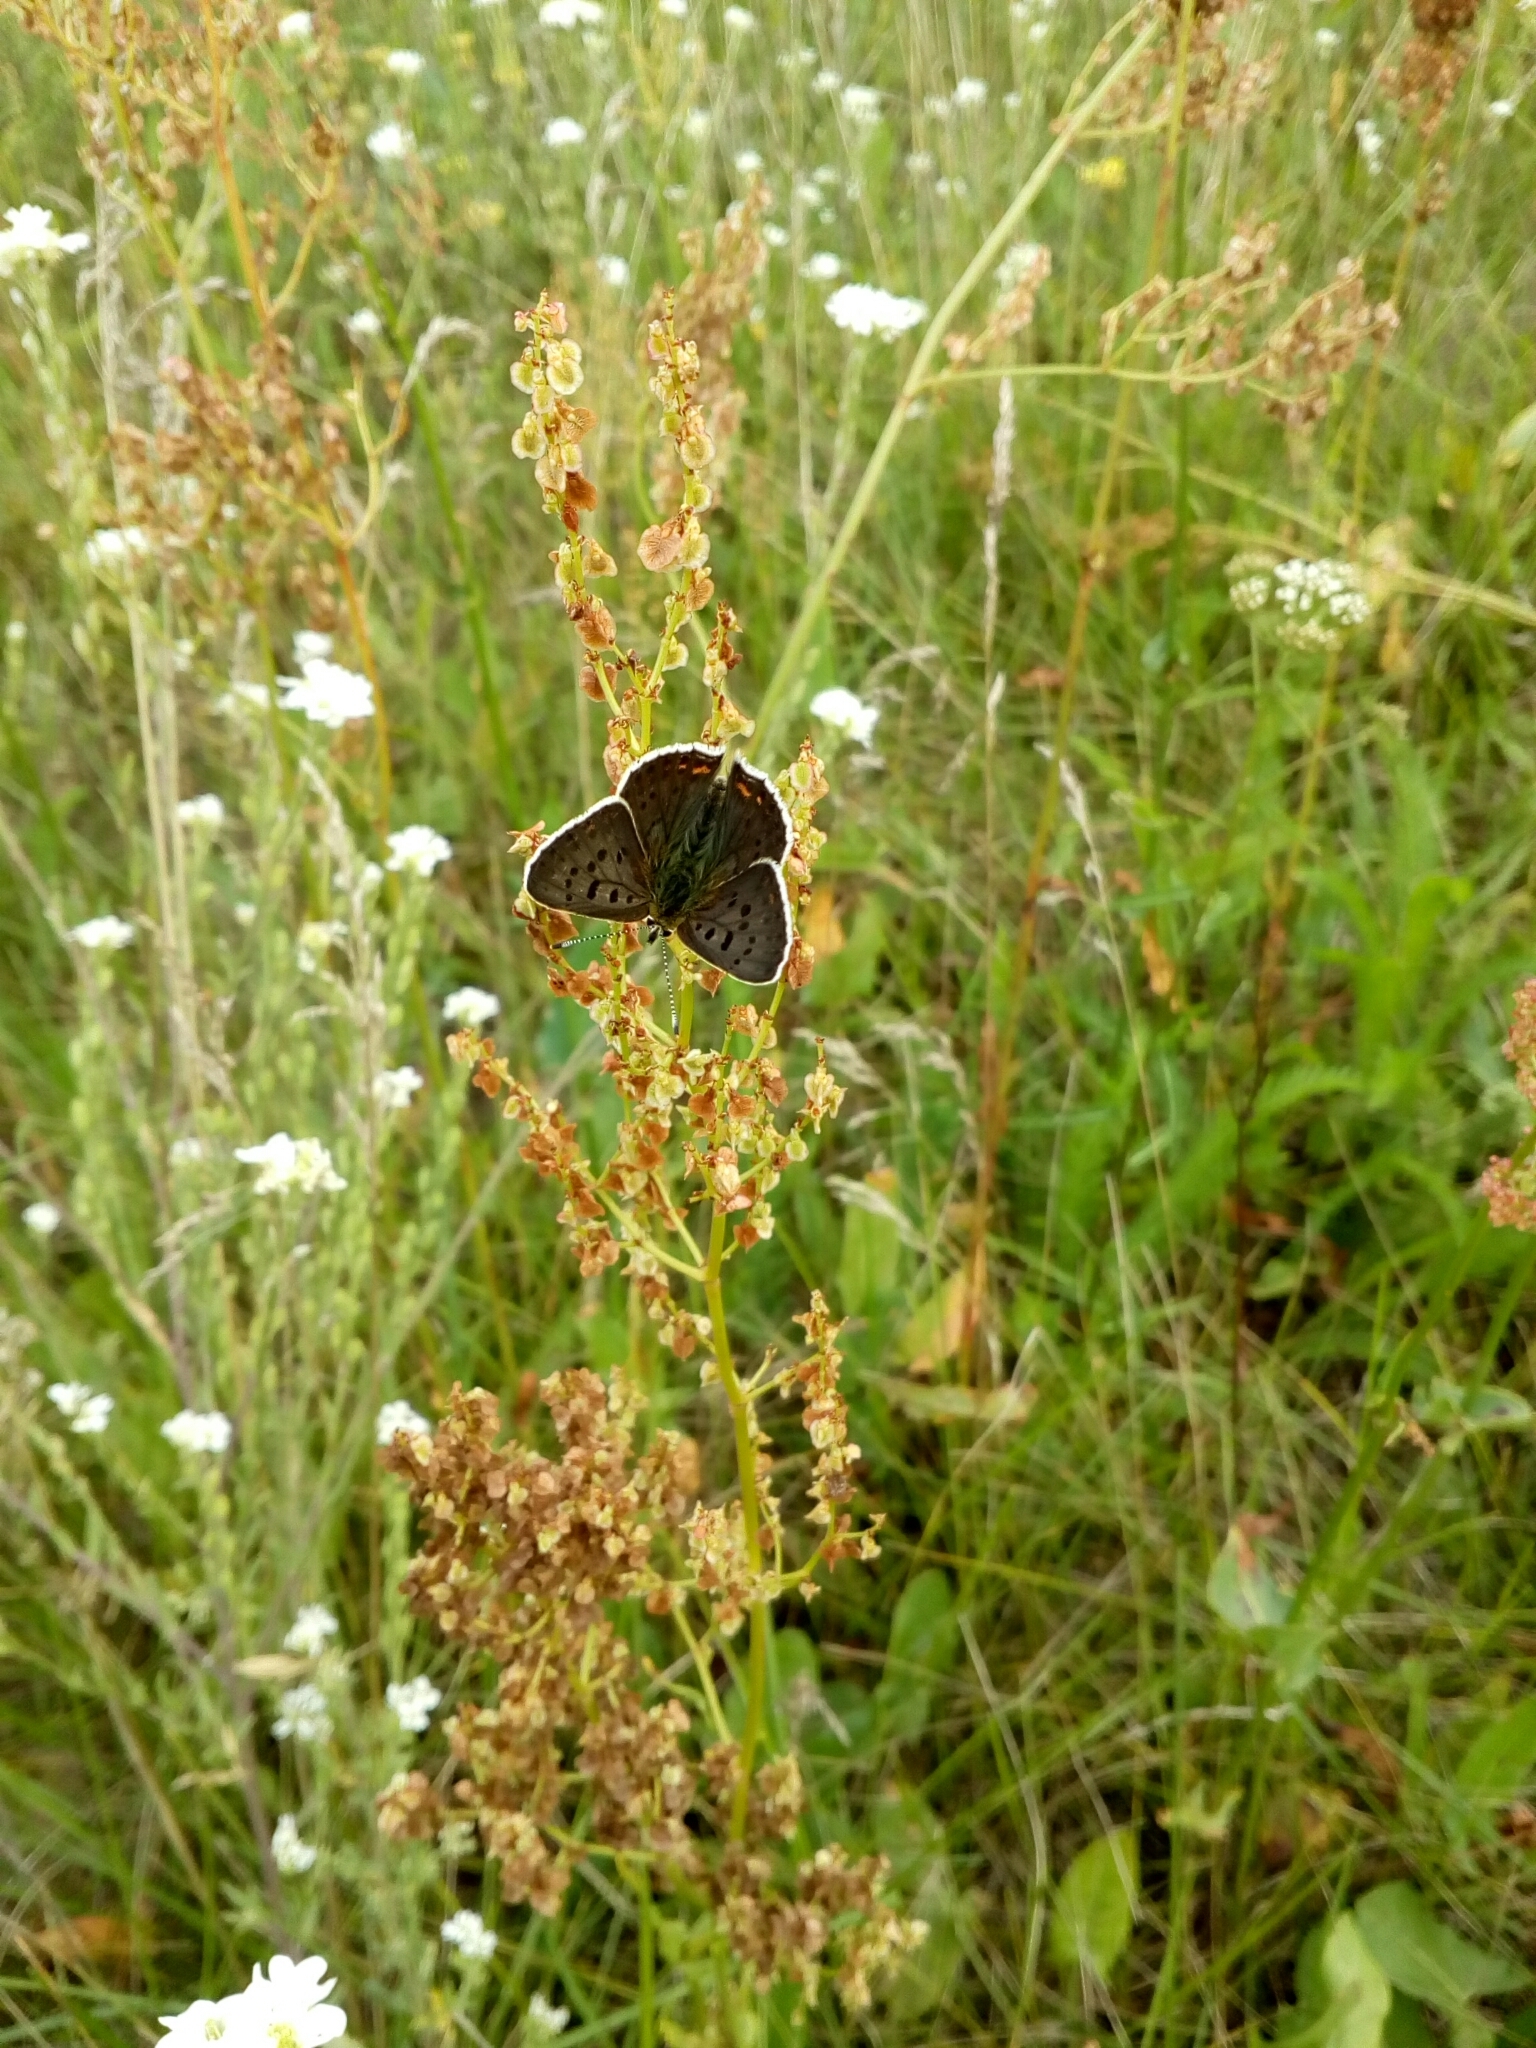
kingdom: Animalia
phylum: Arthropoda
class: Insecta
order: Lepidoptera
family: Lycaenidae
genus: Loweia
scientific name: Loweia tityrus
